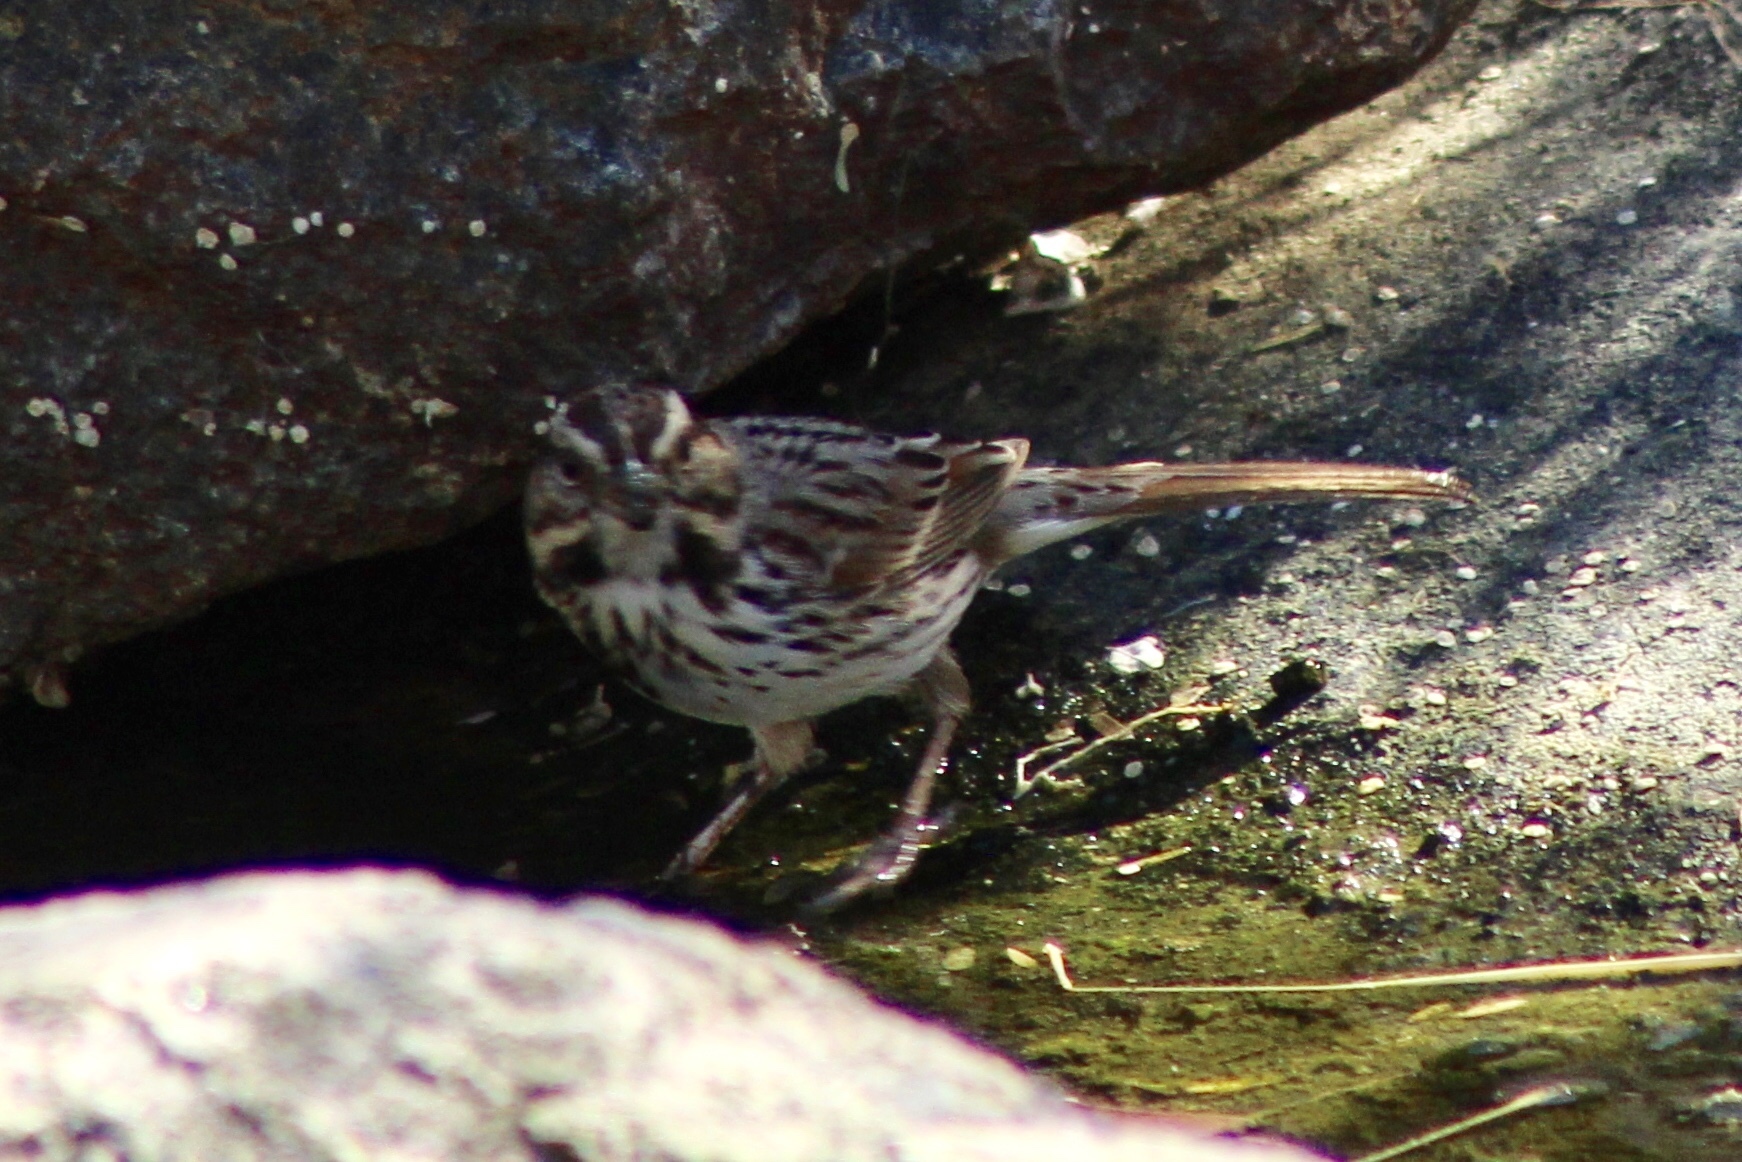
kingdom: Animalia
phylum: Chordata
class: Aves
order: Passeriformes
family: Passerellidae
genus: Melospiza
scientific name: Melospiza melodia
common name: Song sparrow
